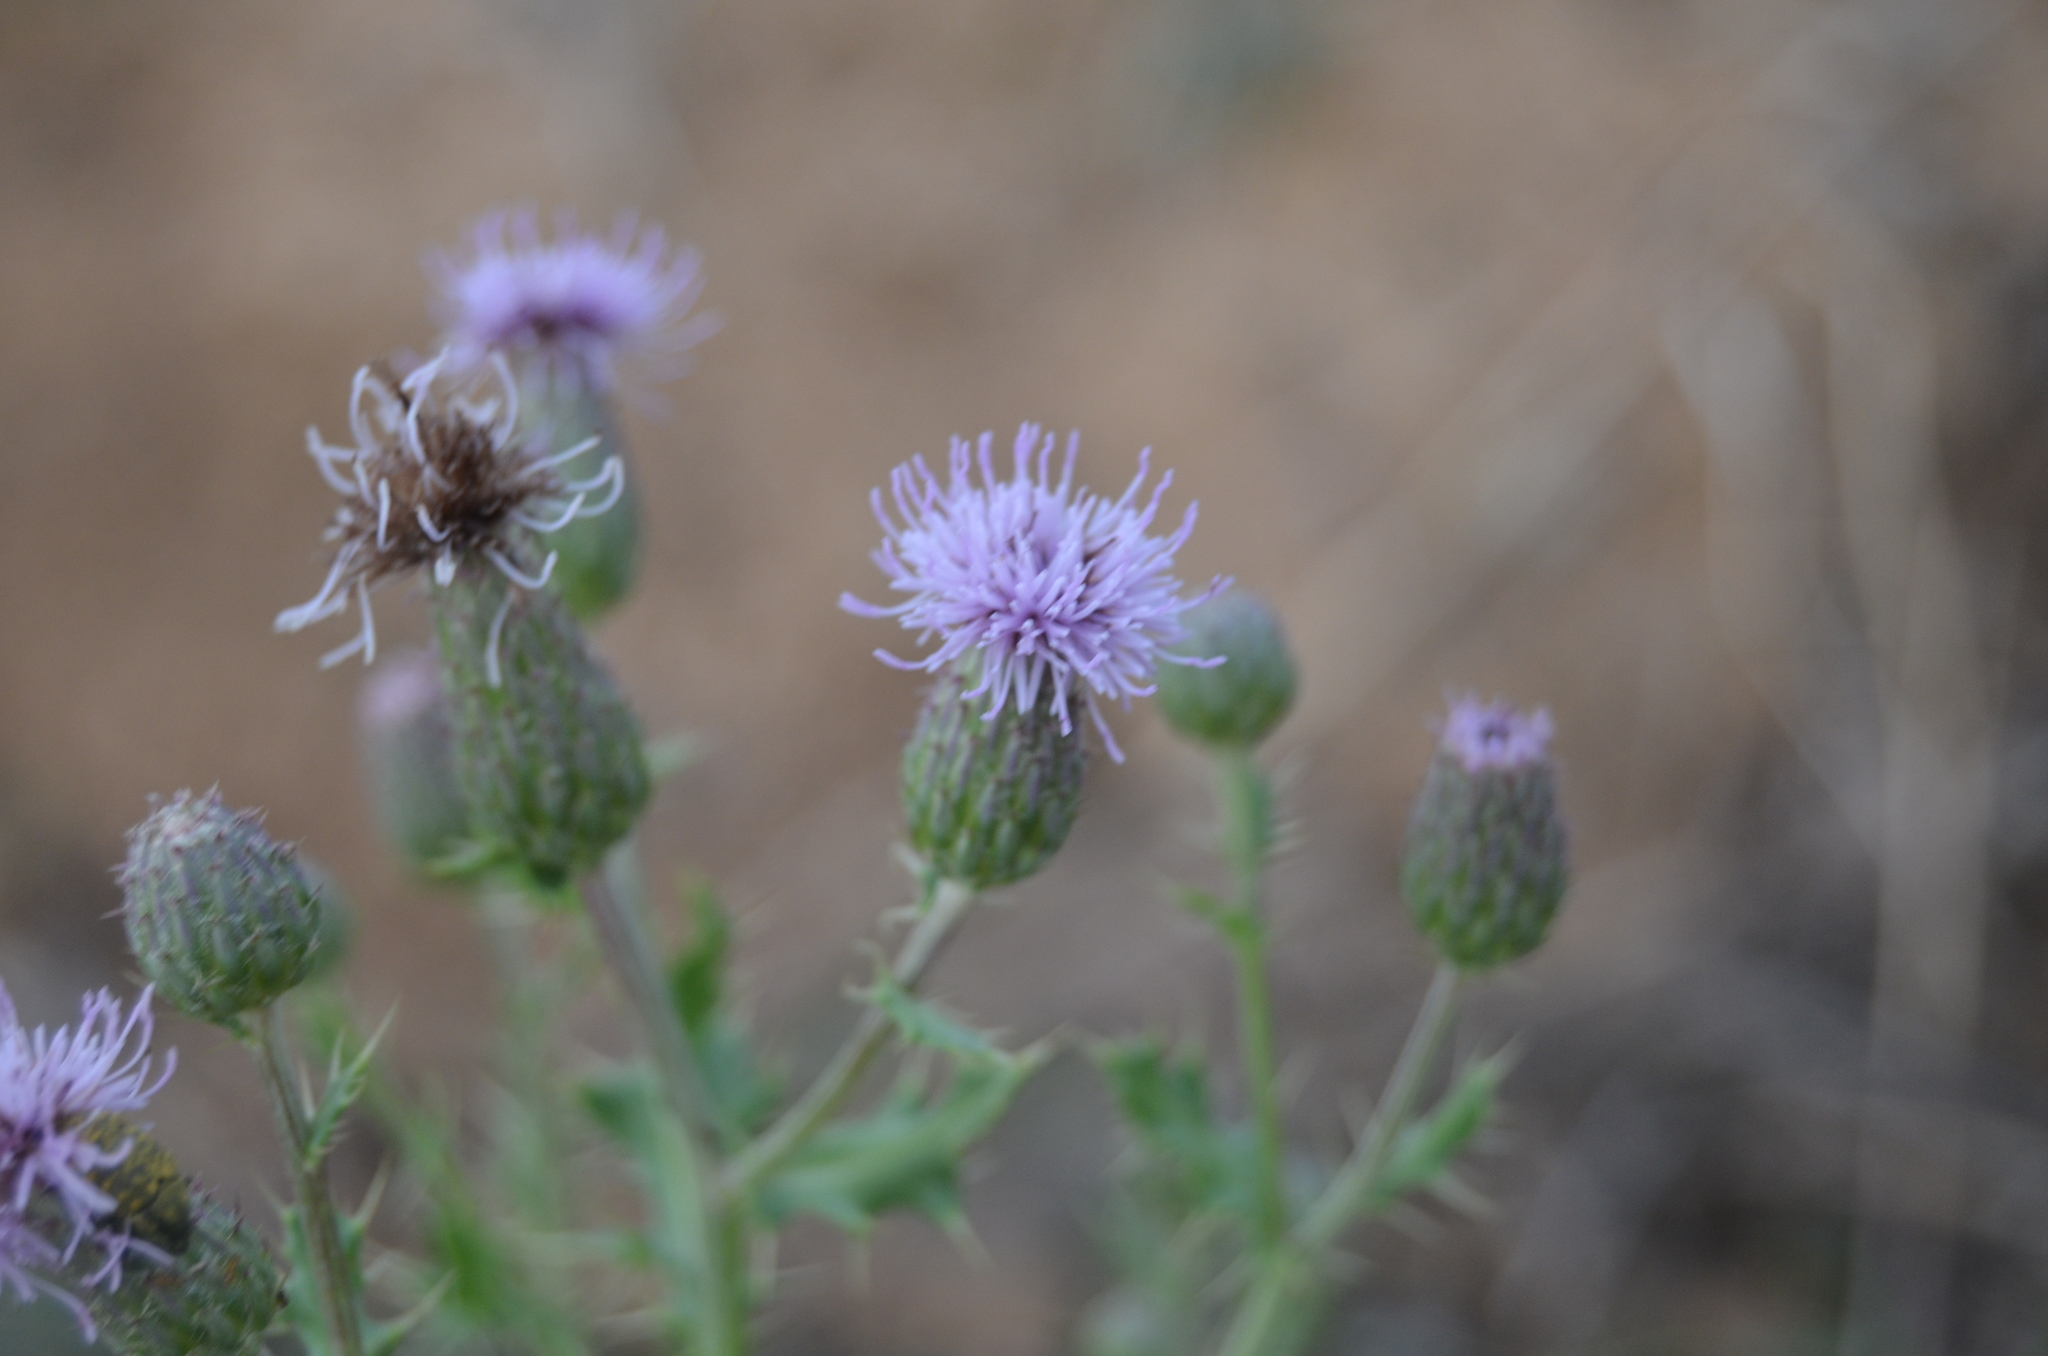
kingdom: Plantae
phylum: Tracheophyta
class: Magnoliopsida
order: Asterales
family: Asteraceae
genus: Cirsium
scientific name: Cirsium arvense
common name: Creeping thistle
